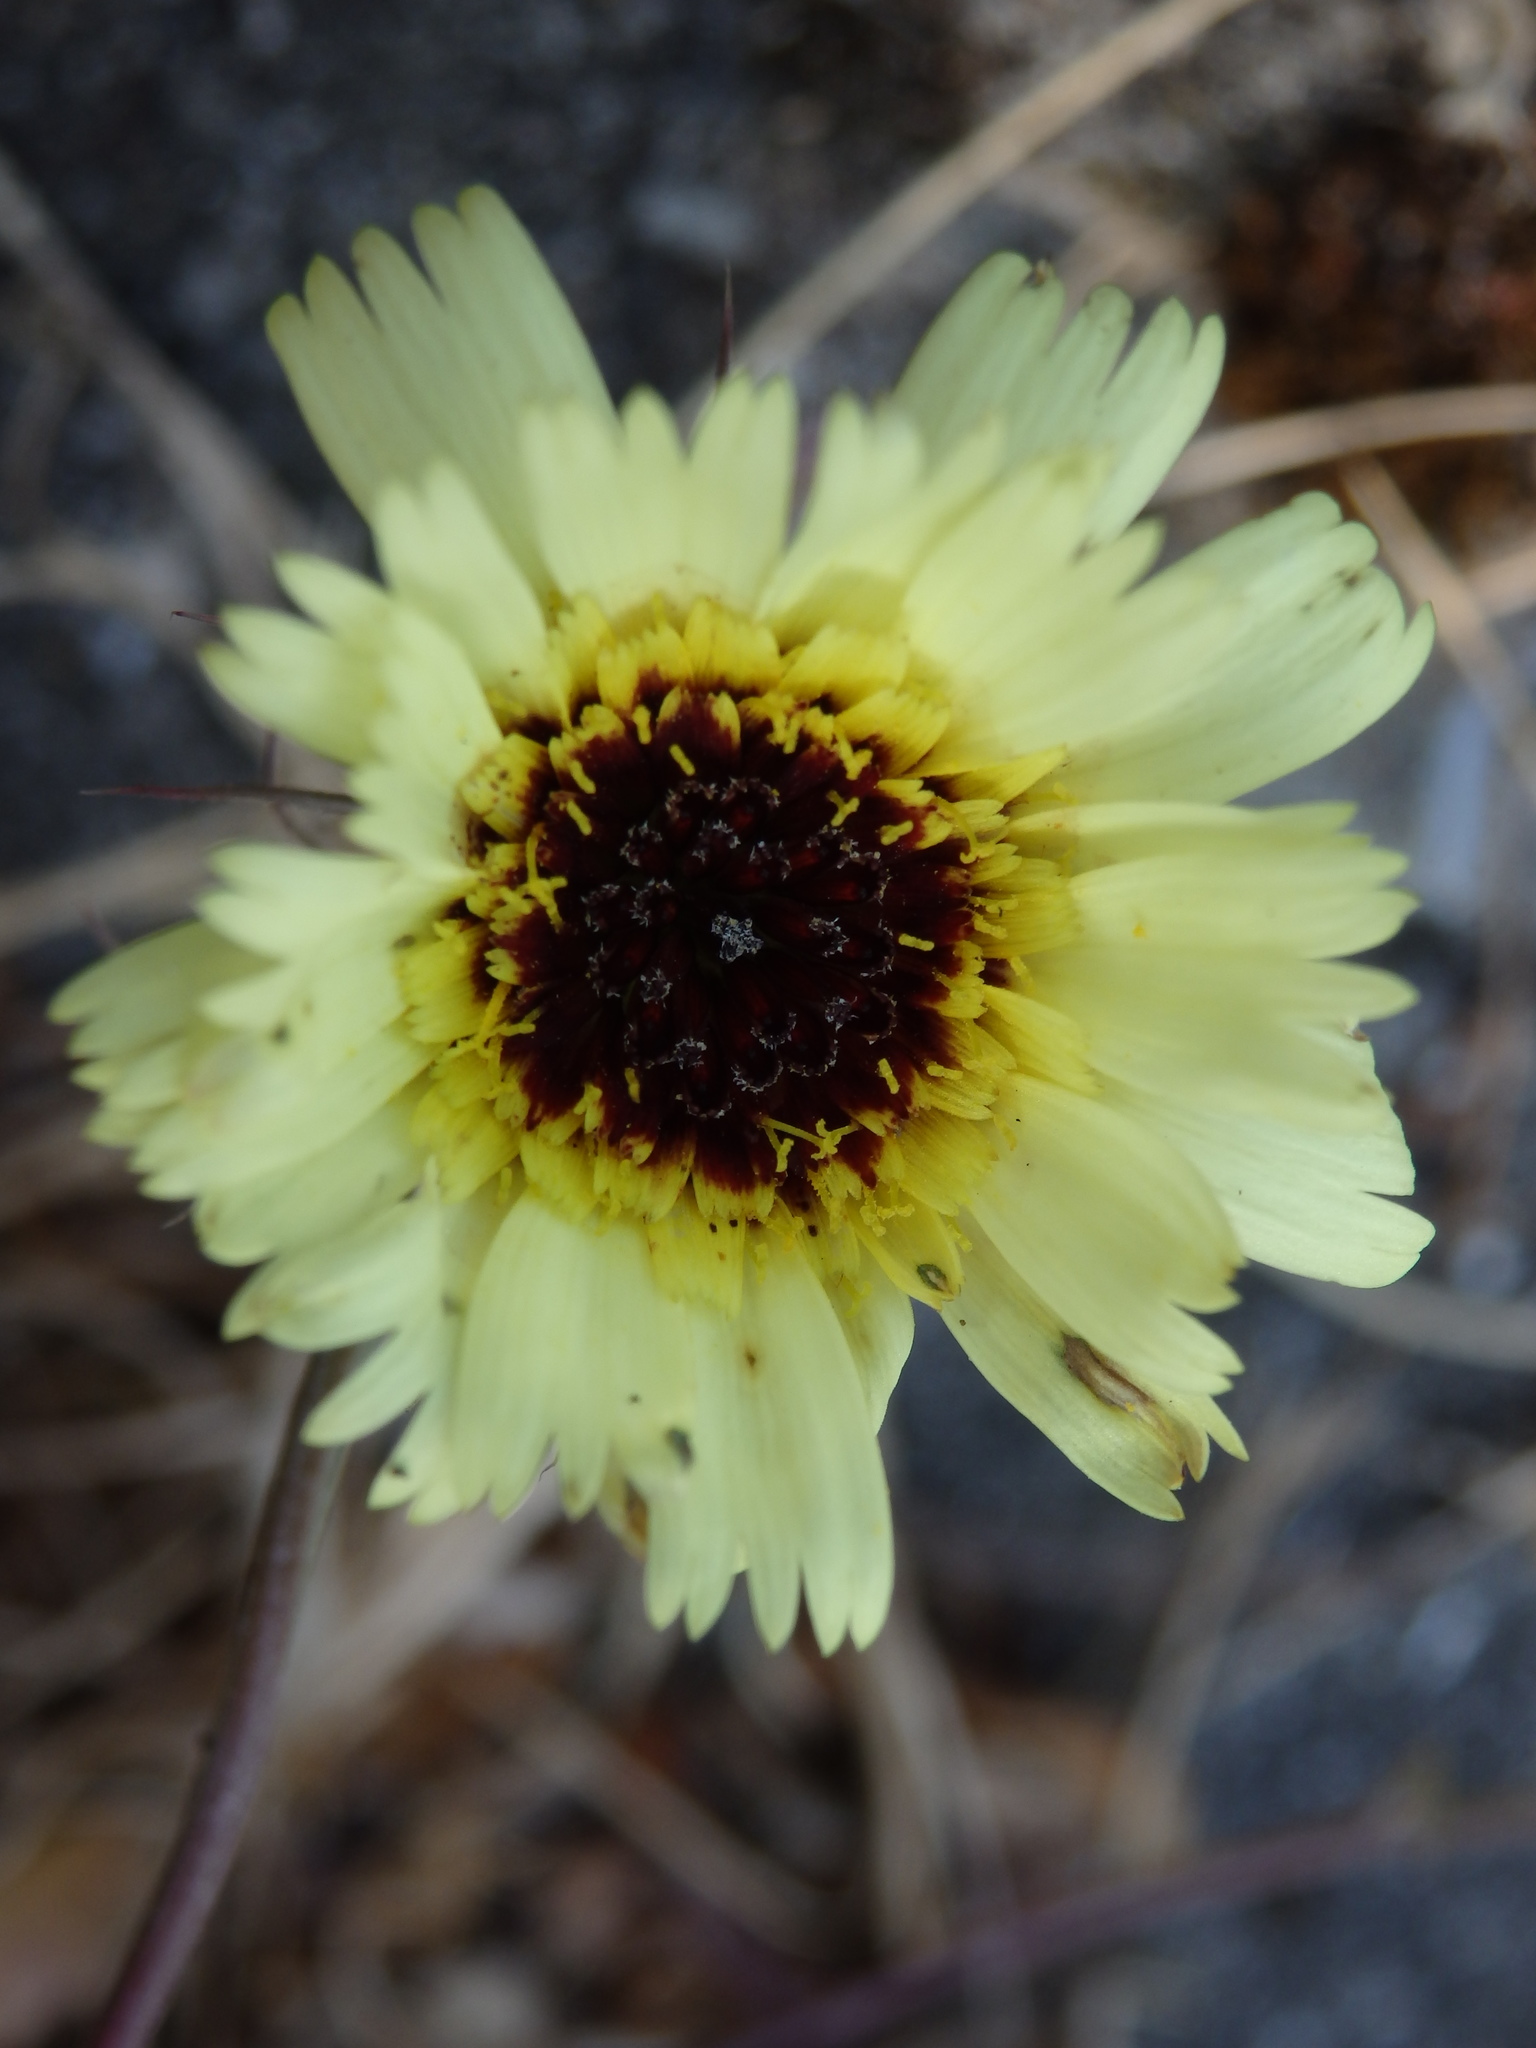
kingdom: Plantae
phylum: Tracheophyta
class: Magnoliopsida
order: Asterales
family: Asteraceae
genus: Tolpis
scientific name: Tolpis barbata
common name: Yellow hawkweed
